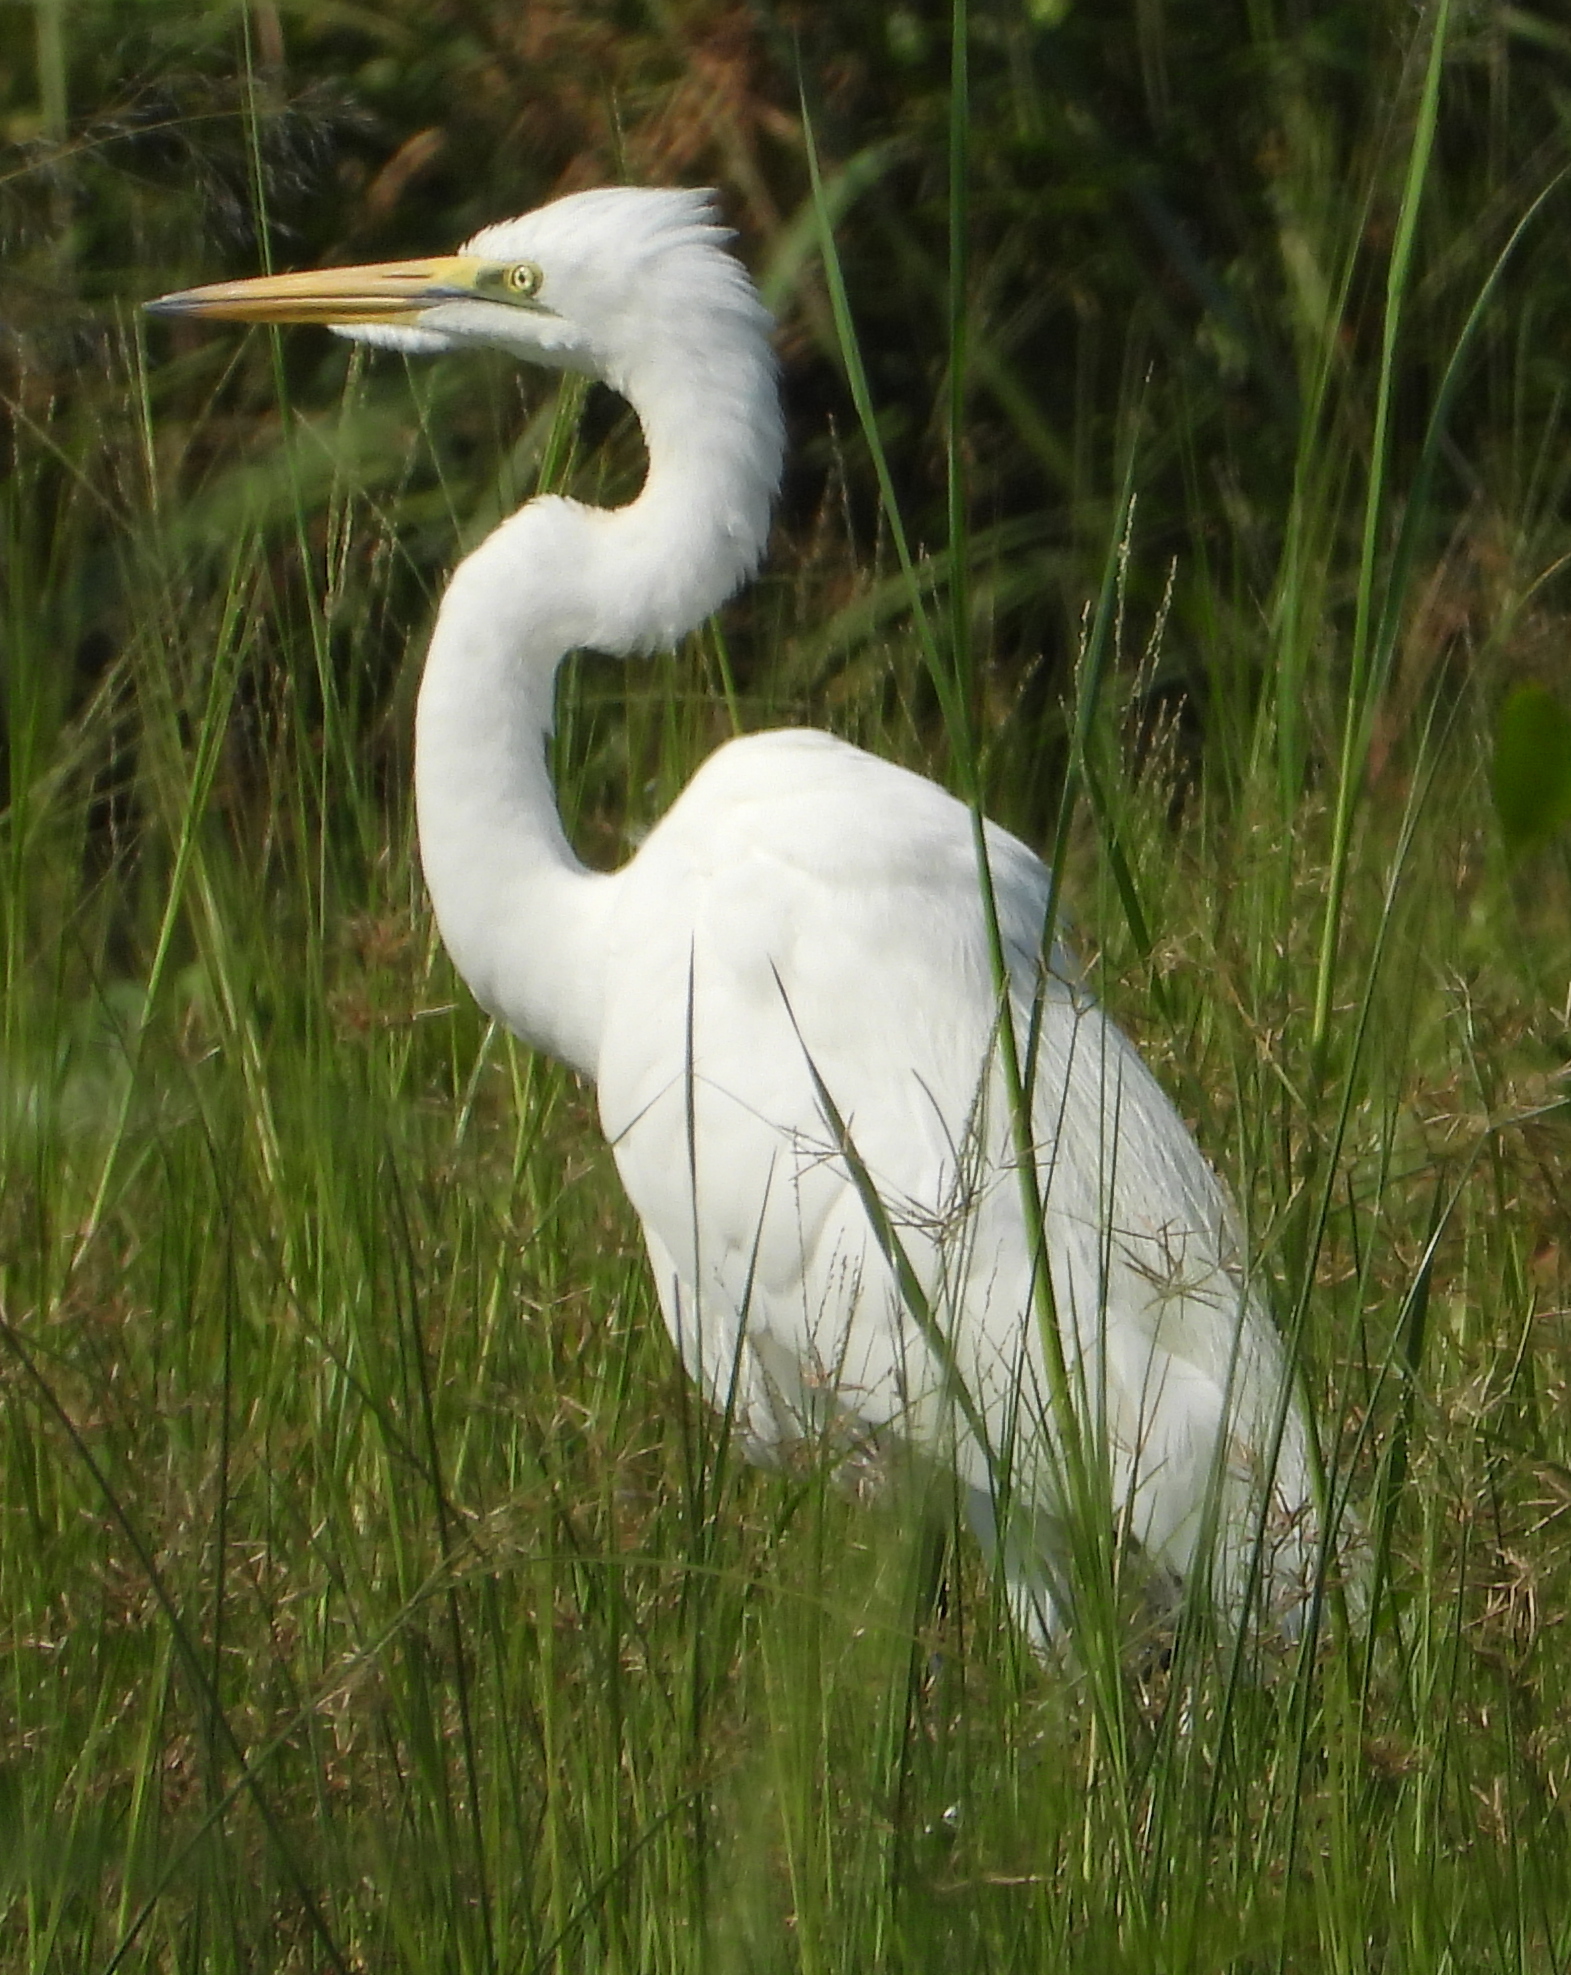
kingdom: Animalia
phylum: Chordata
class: Aves
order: Pelecaniformes
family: Ardeidae
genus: Ardea
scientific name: Ardea alba
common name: Great egret
